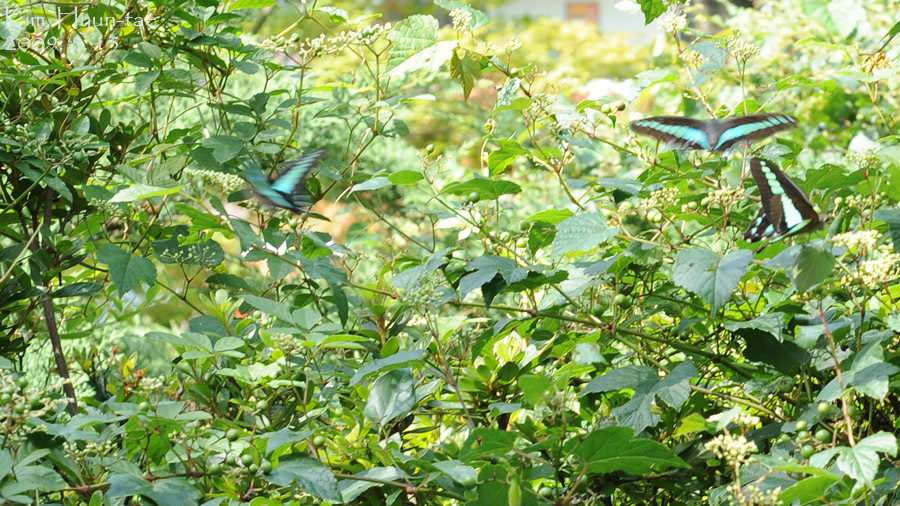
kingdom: Fungi
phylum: Ascomycota
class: Sordariomycetes
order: Microascales
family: Microascaceae
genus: Graphium
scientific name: Graphium sarpedon
